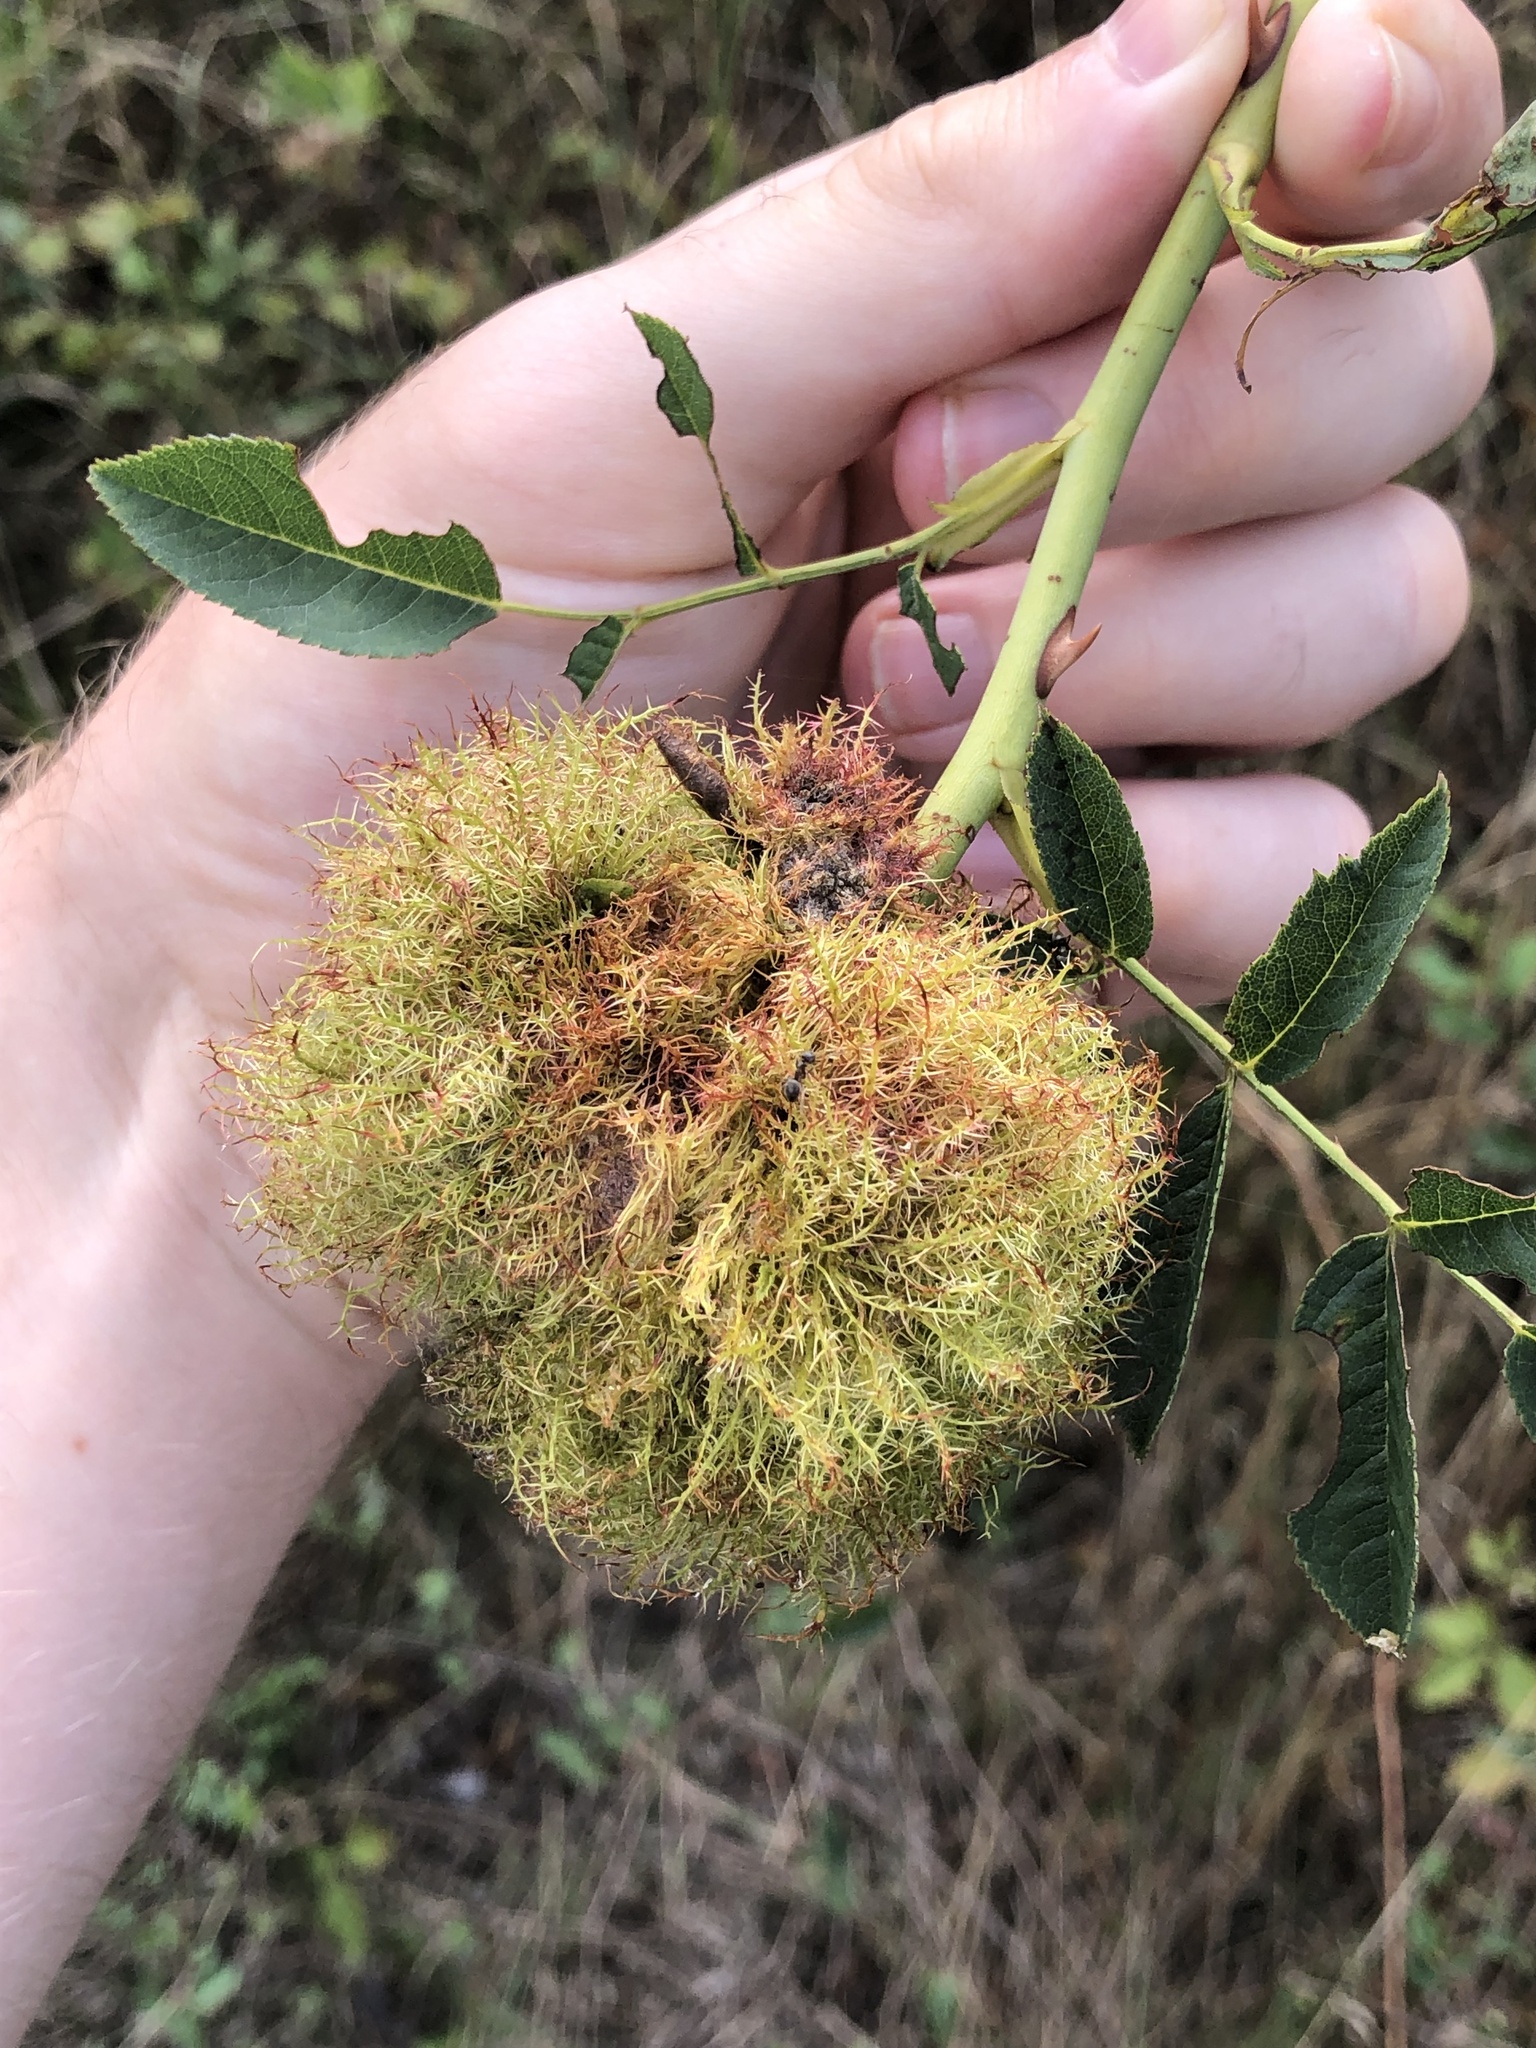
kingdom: Animalia
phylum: Arthropoda
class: Insecta
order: Hymenoptera
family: Cynipidae
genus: Diplolepis
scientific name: Diplolepis rosae
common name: Bedeguar gall
